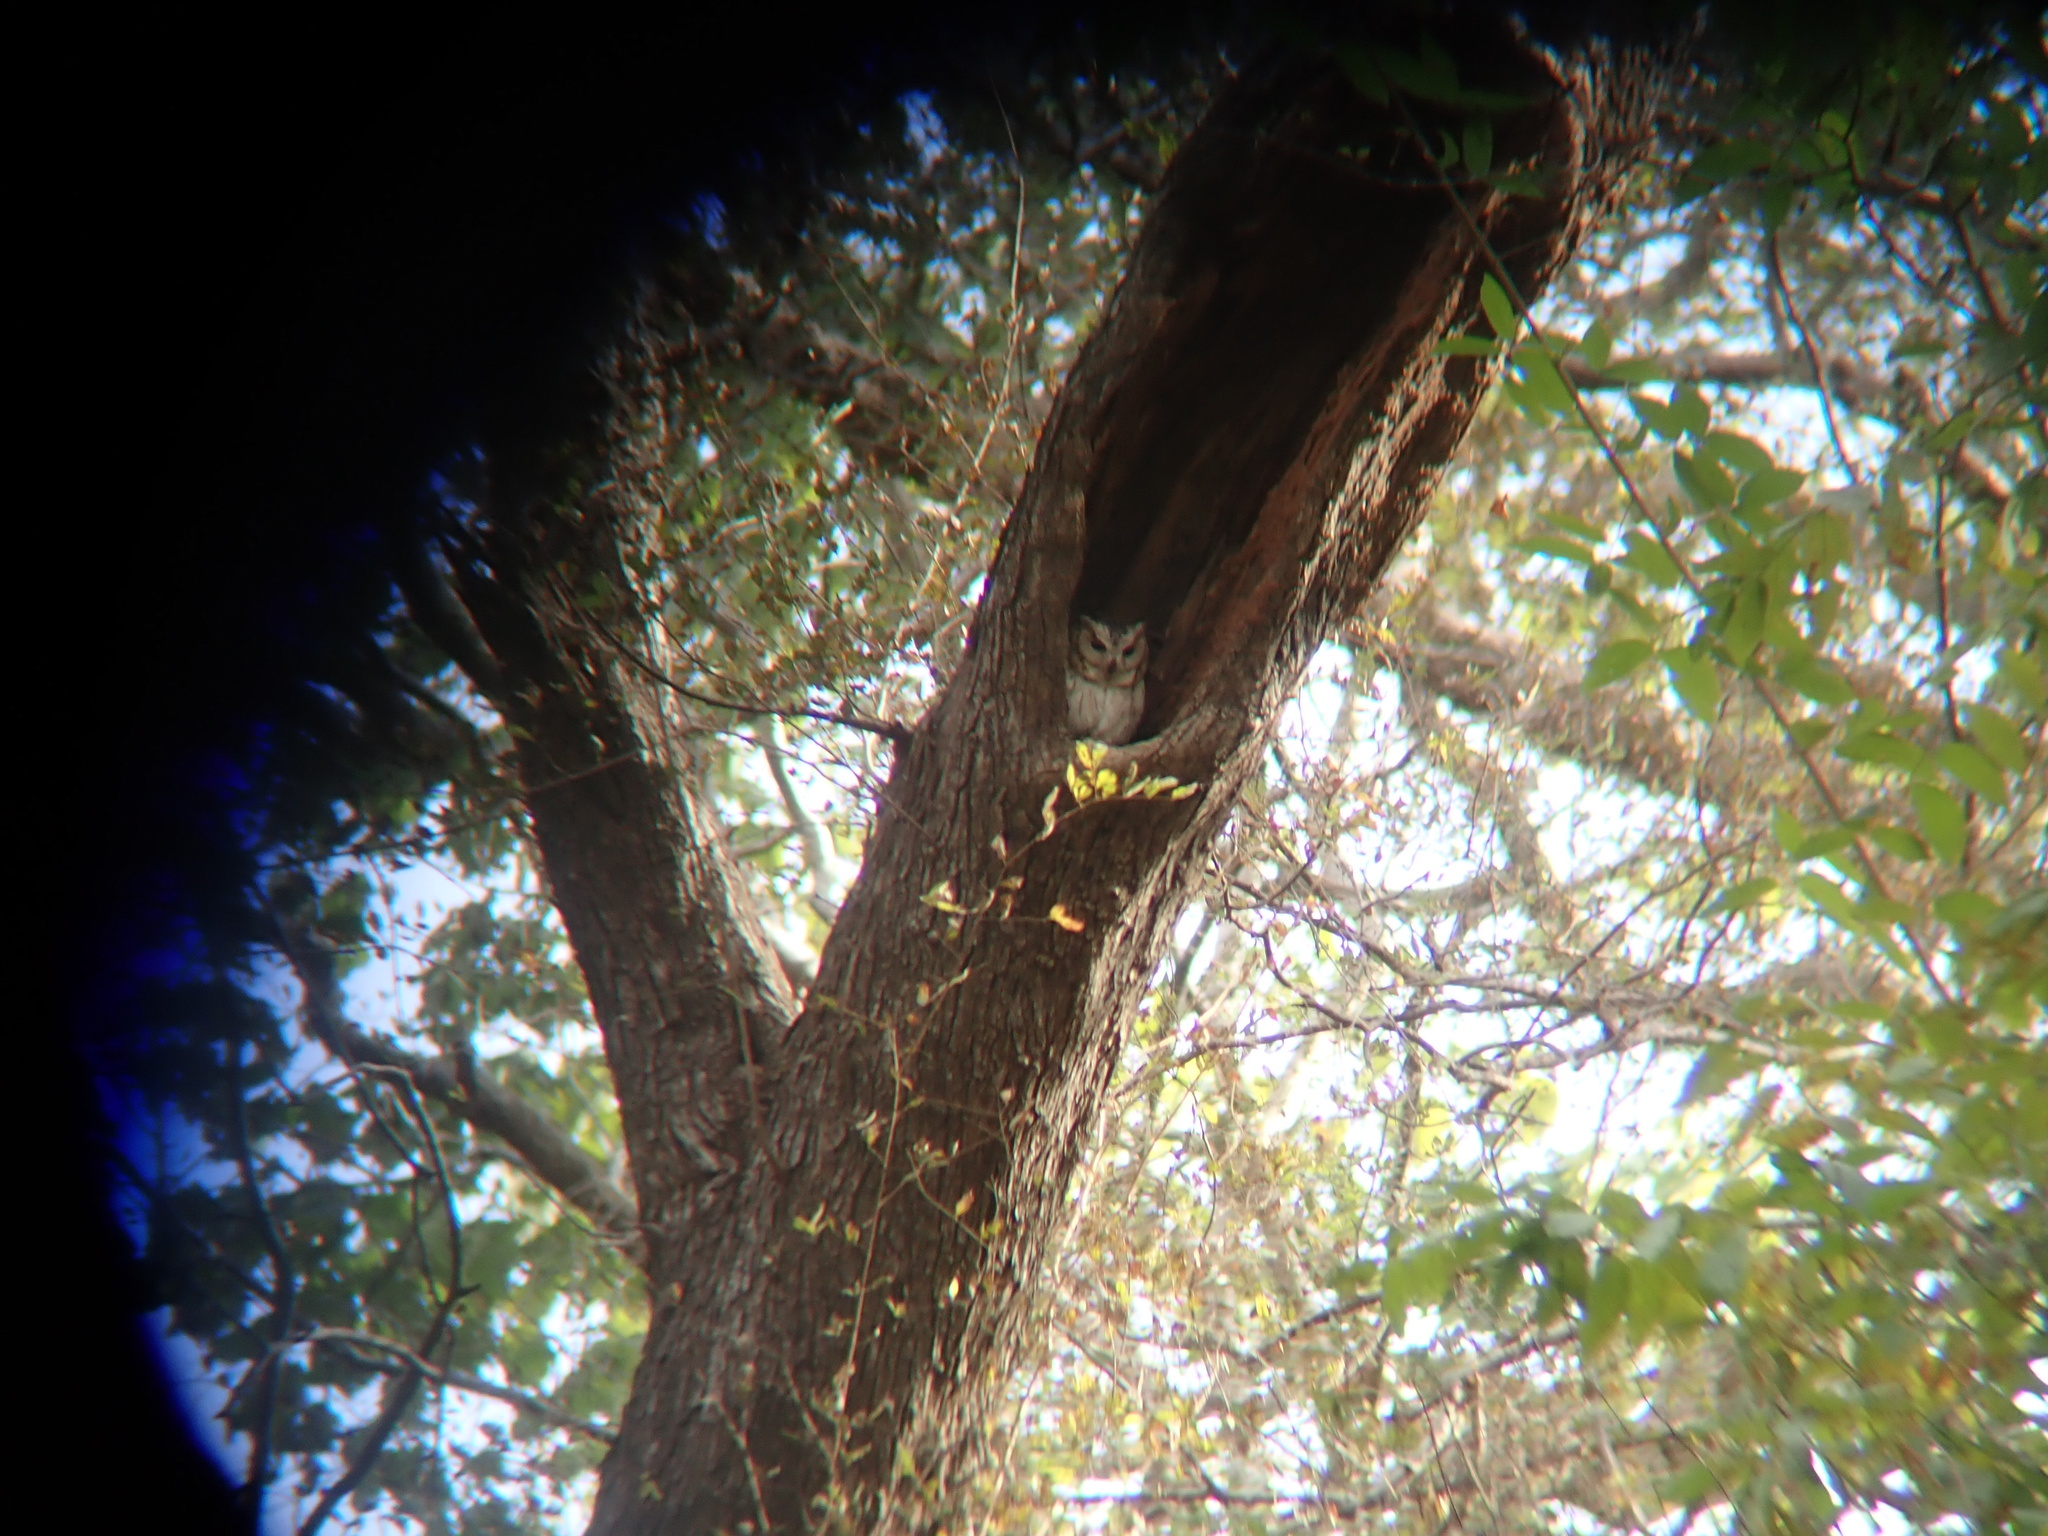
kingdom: Animalia
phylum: Chordata
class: Aves
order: Strigiformes
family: Strigidae
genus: Otus
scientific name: Otus bakkamoena
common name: Indian scops owl
